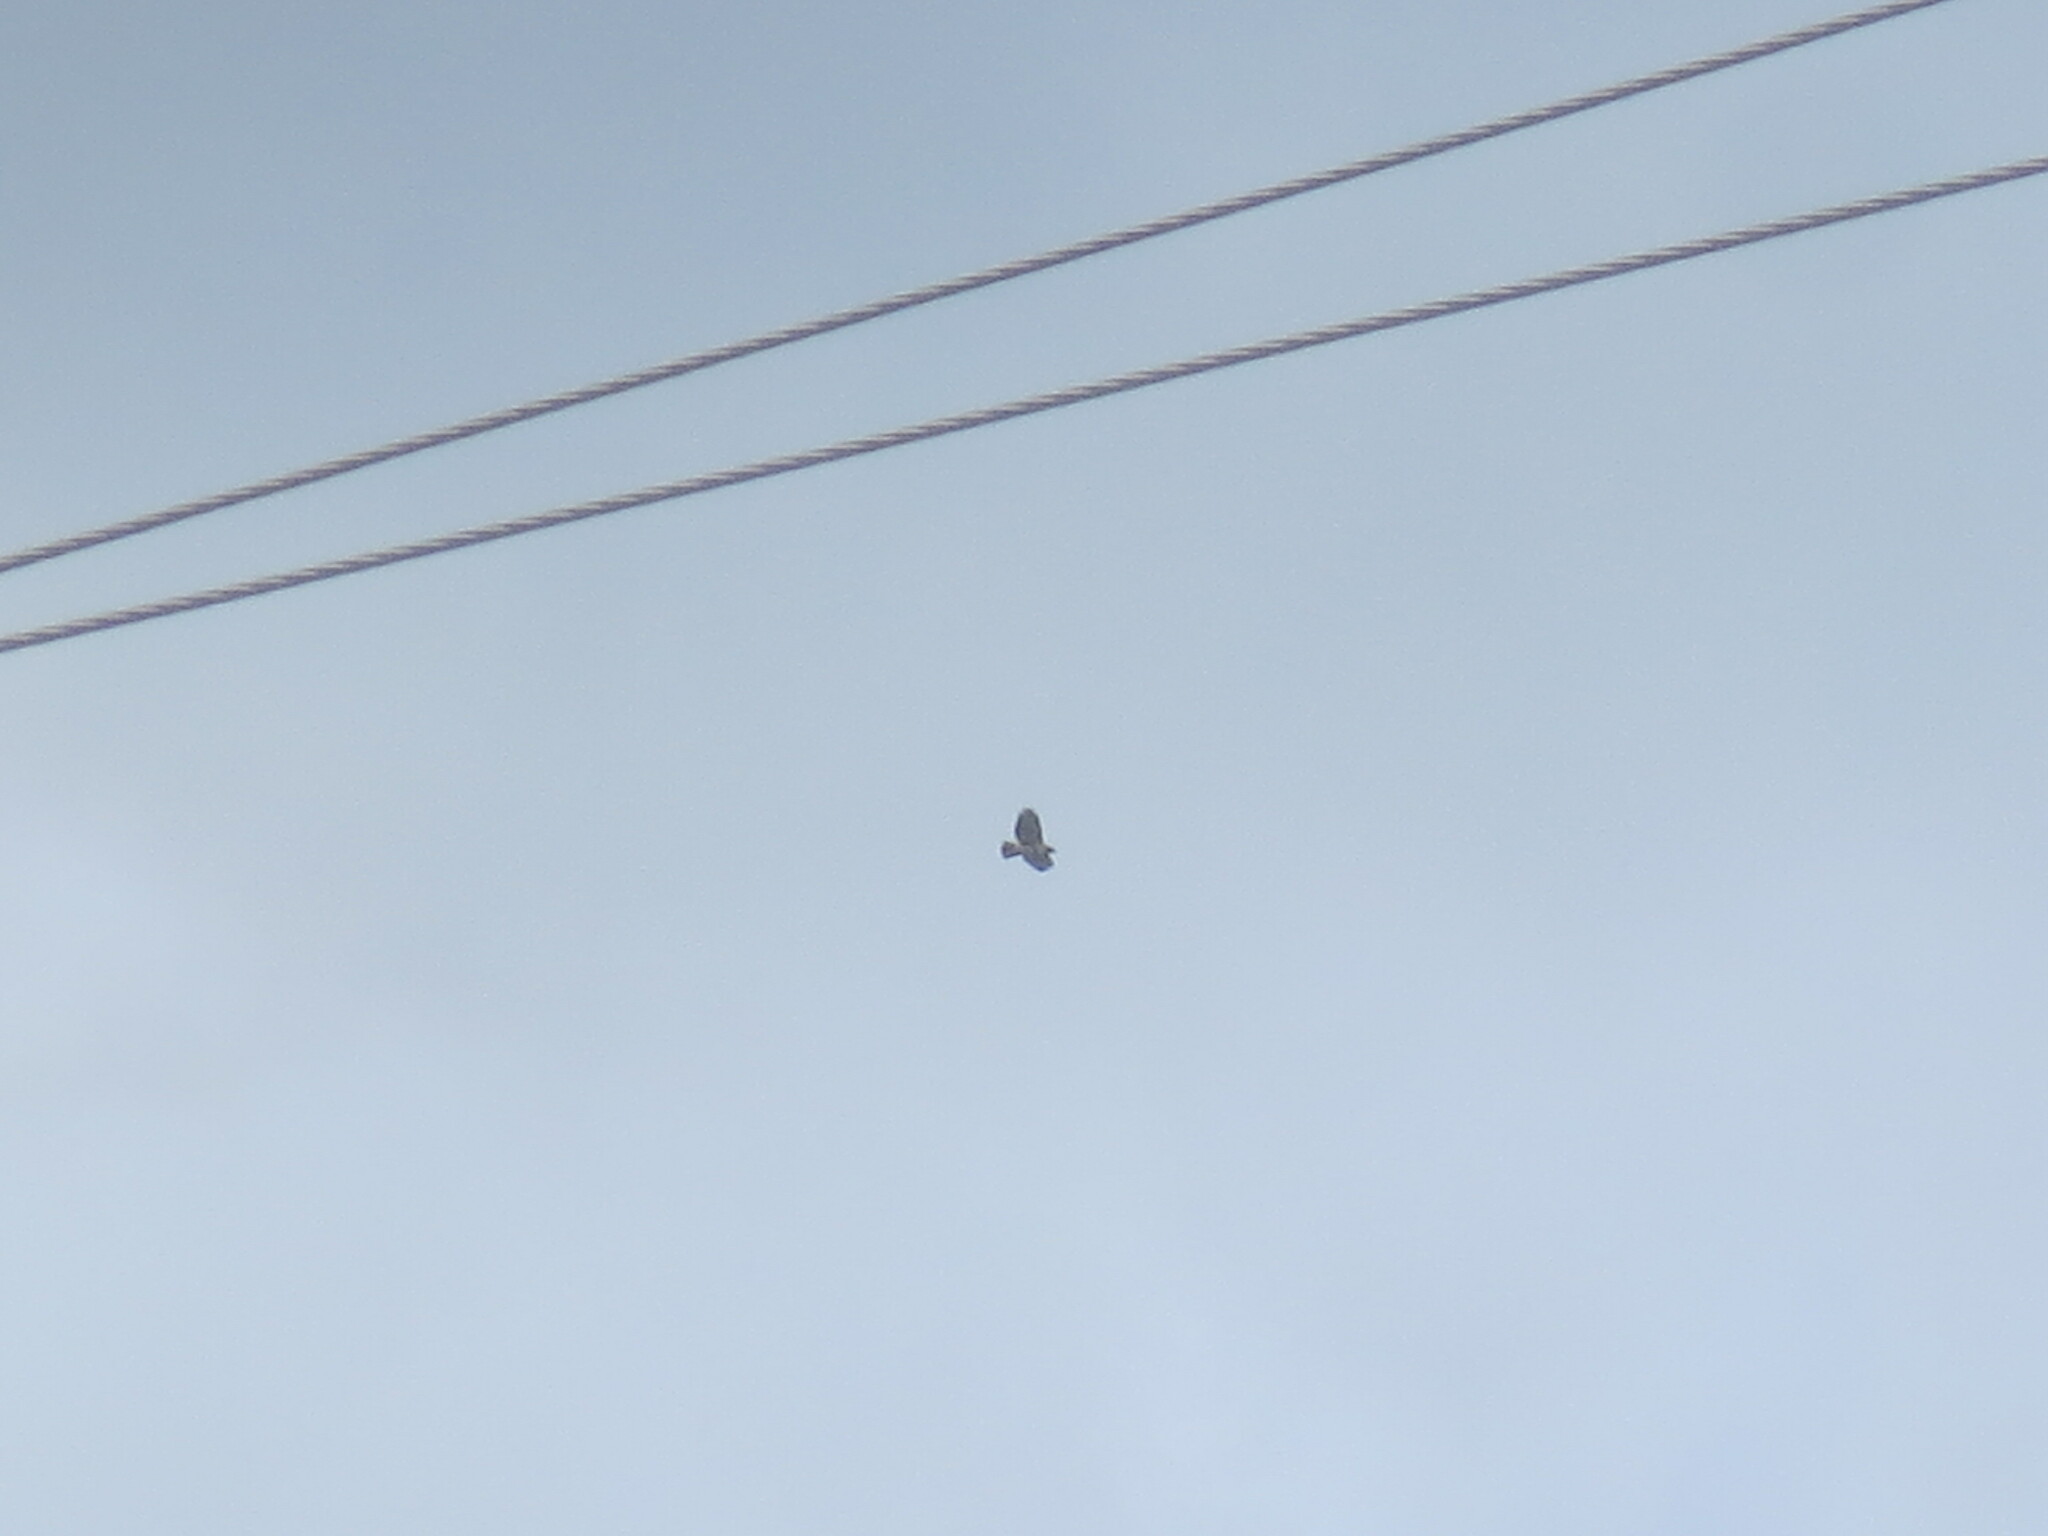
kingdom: Animalia
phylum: Chordata
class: Aves
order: Accipitriformes
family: Accipitridae
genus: Buteo
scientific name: Buteo jamaicensis
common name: Red-tailed hawk
